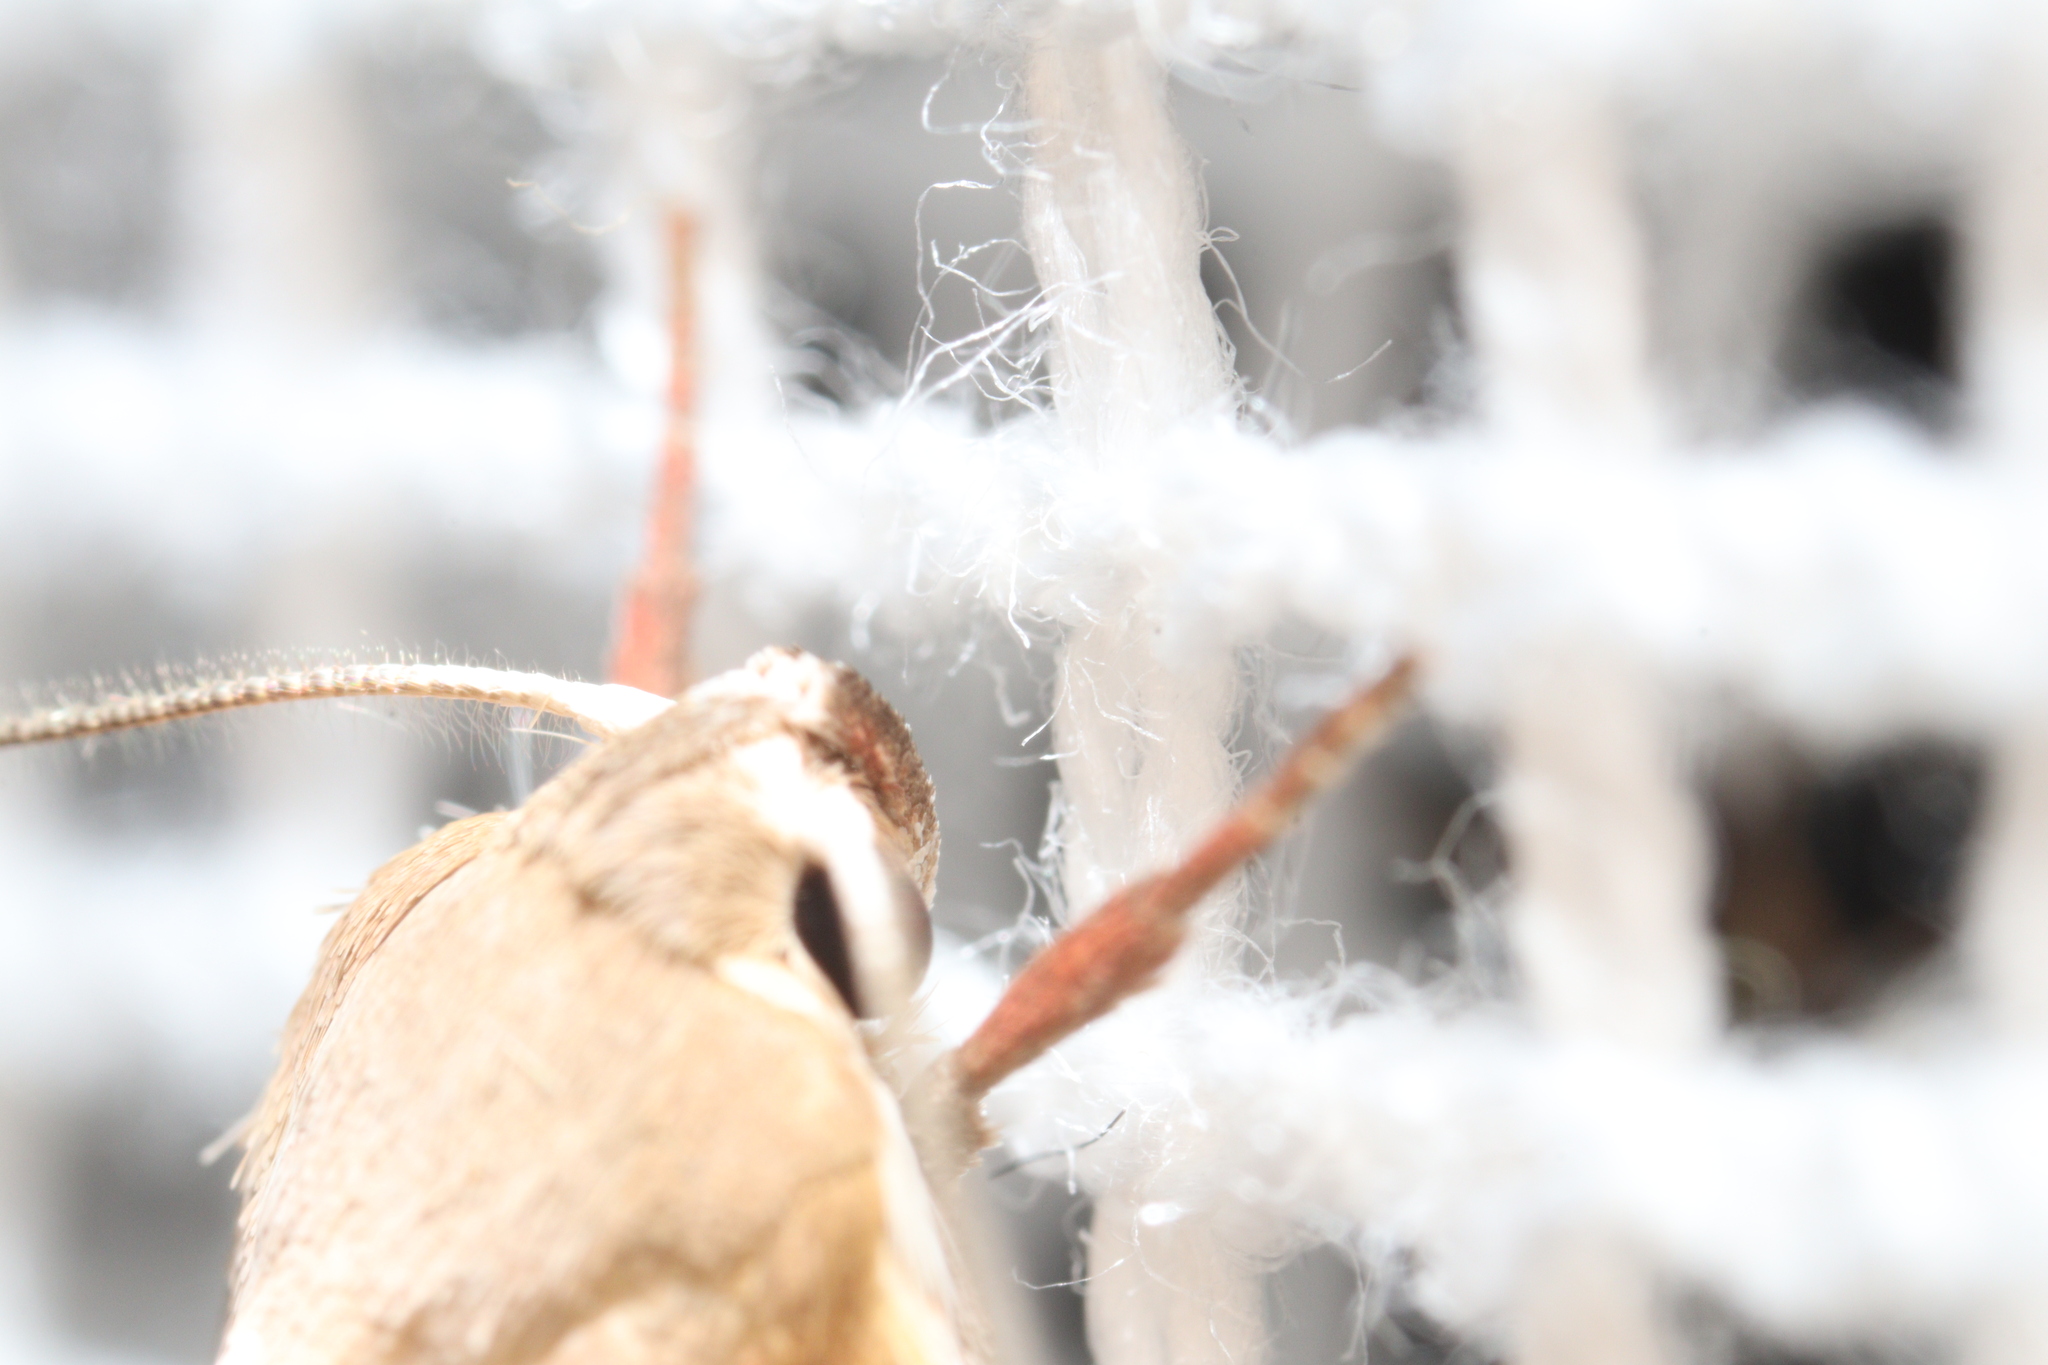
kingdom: Animalia
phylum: Arthropoda
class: Insecta
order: Lepidoptera
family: Oecophoridae
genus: Ptyoptila
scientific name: Ptyoptila matutinella
